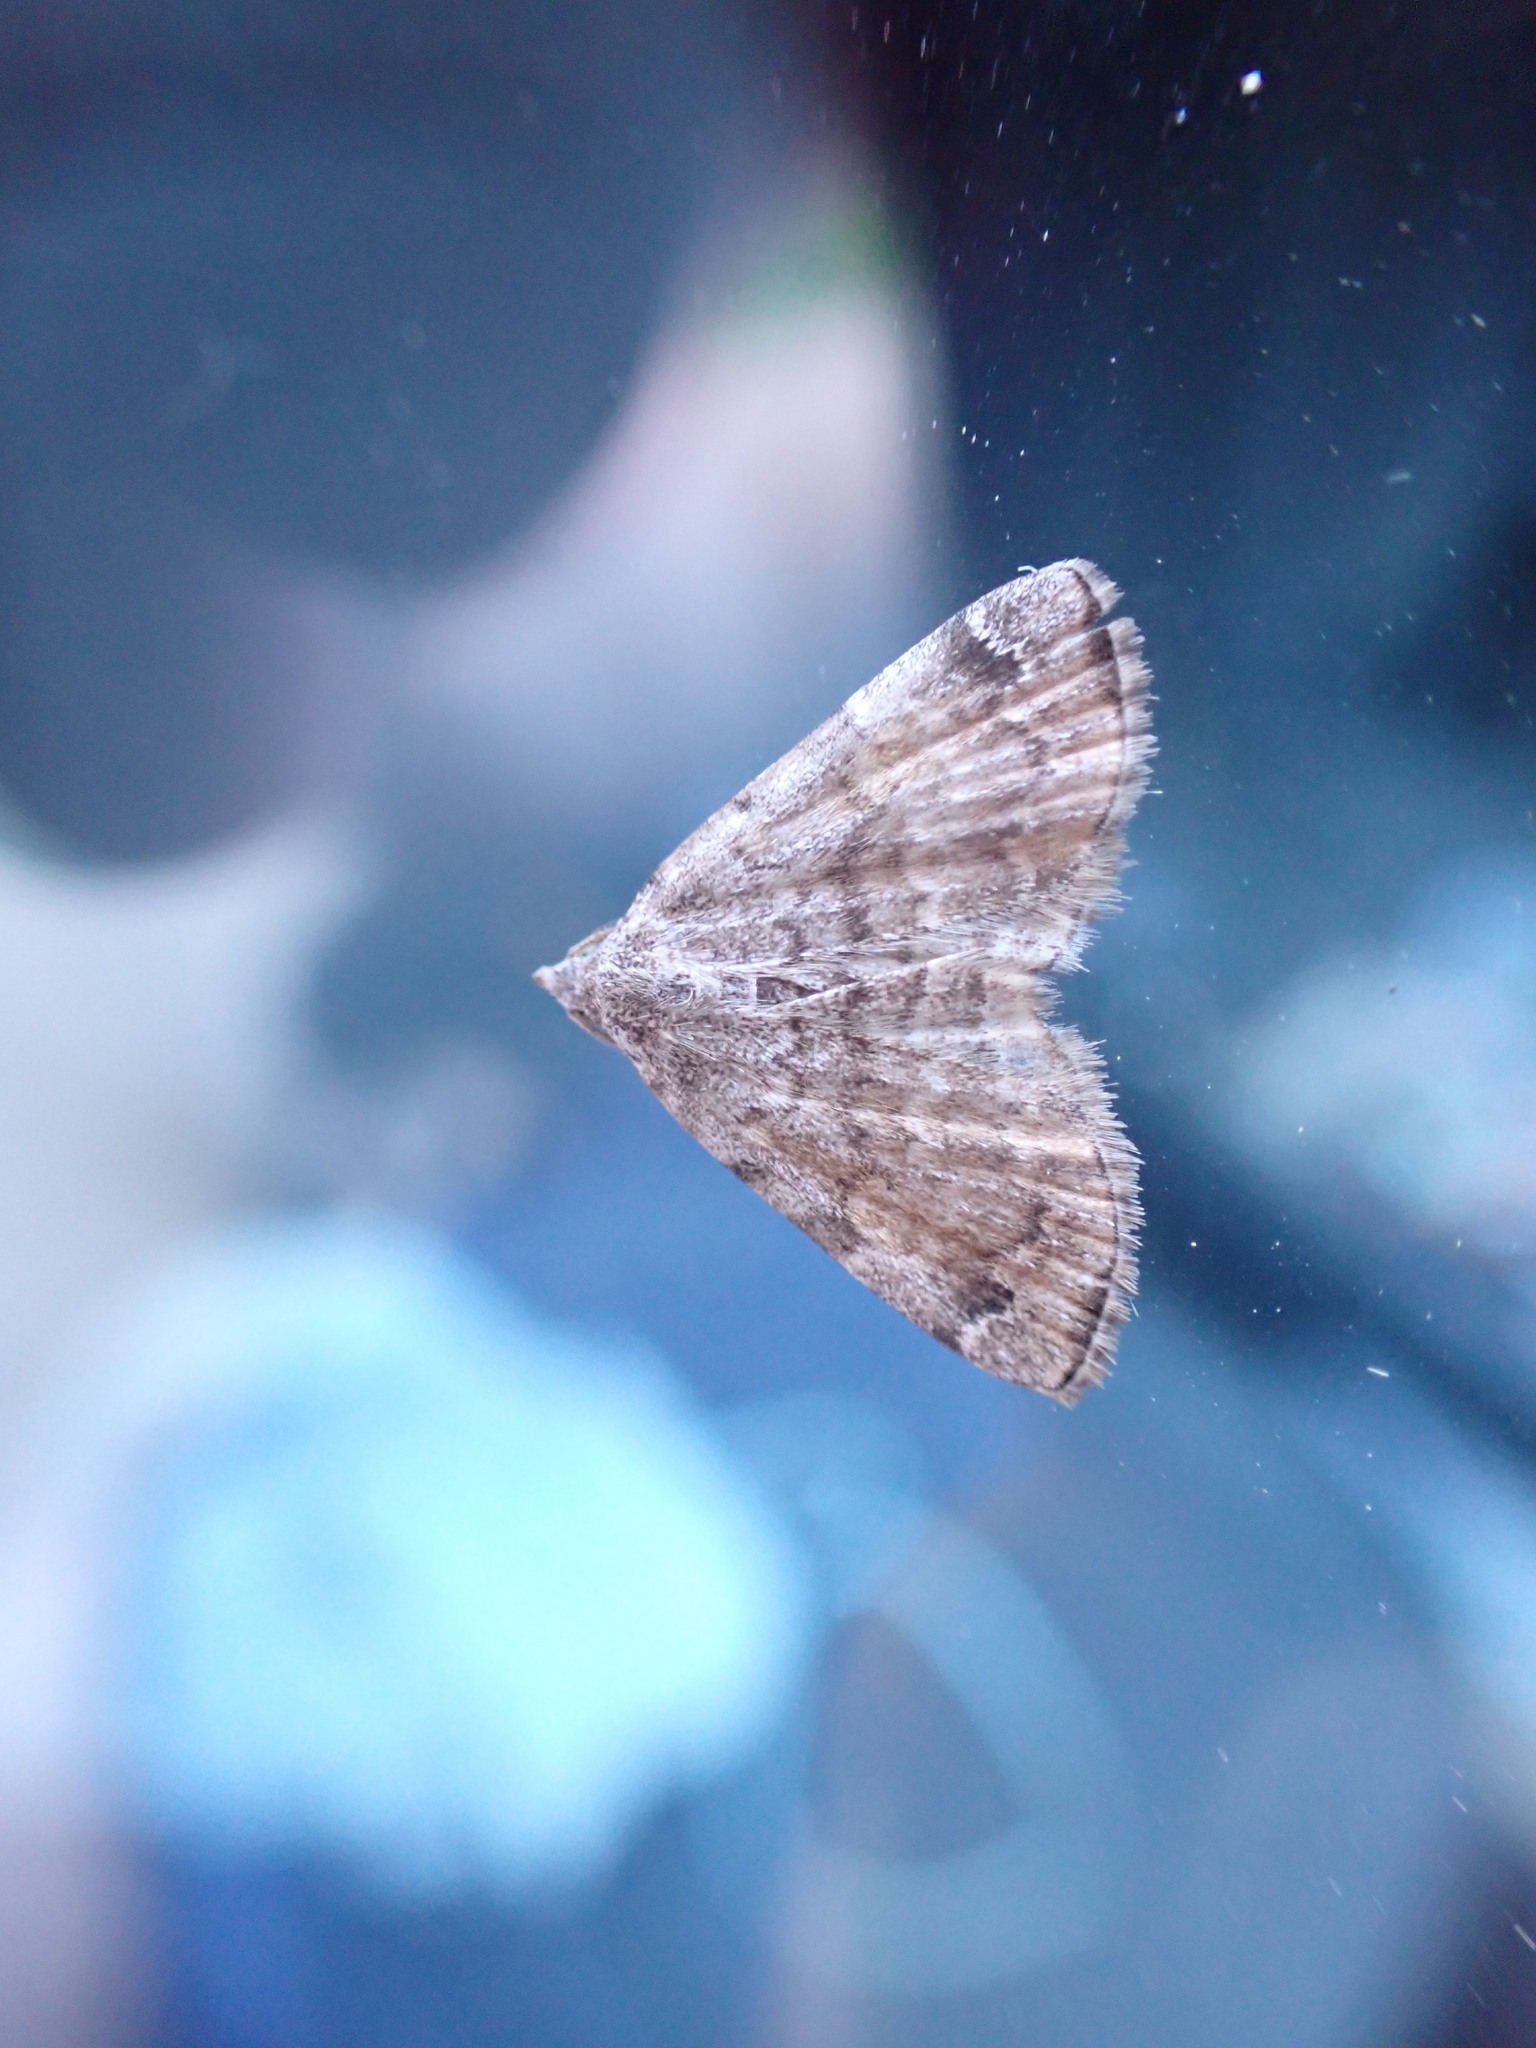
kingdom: Animalia
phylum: Arthropoda
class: Insecta
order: Lepidoptera
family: Erebidae
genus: Idia
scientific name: Idia americalis
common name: American idia moth
